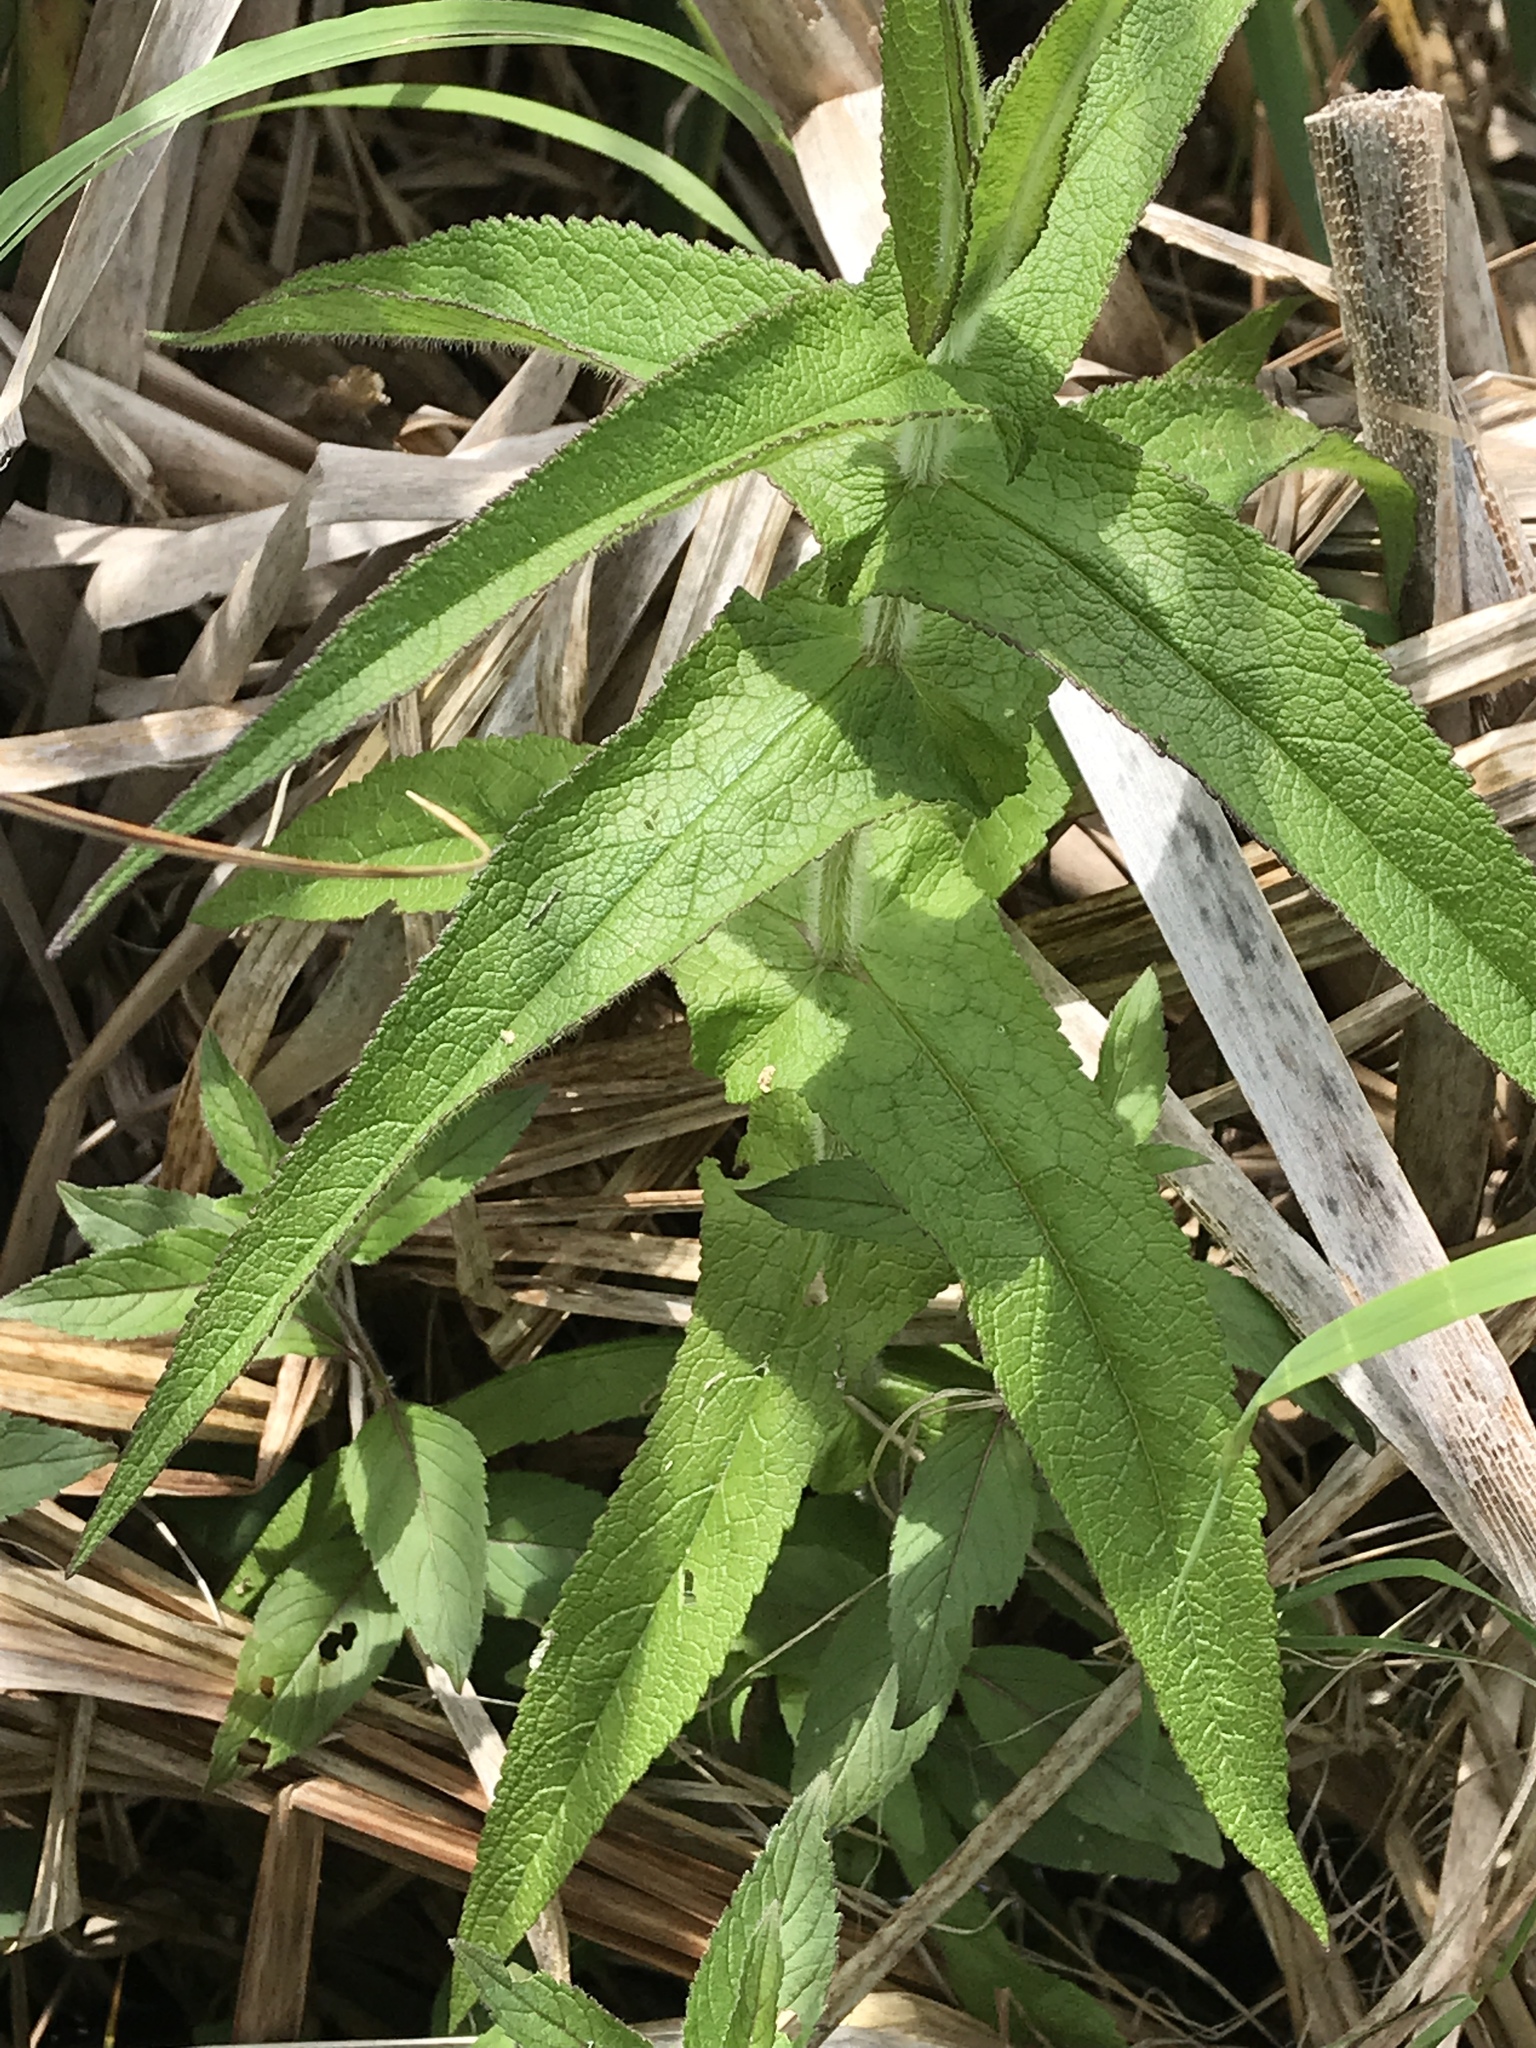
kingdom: Plantae
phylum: Tracheophyta
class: Magnoliopsida
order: Asterales
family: Asteraceae
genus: Eupatorium
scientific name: Eupatorium perfoliatum
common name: Boneset
